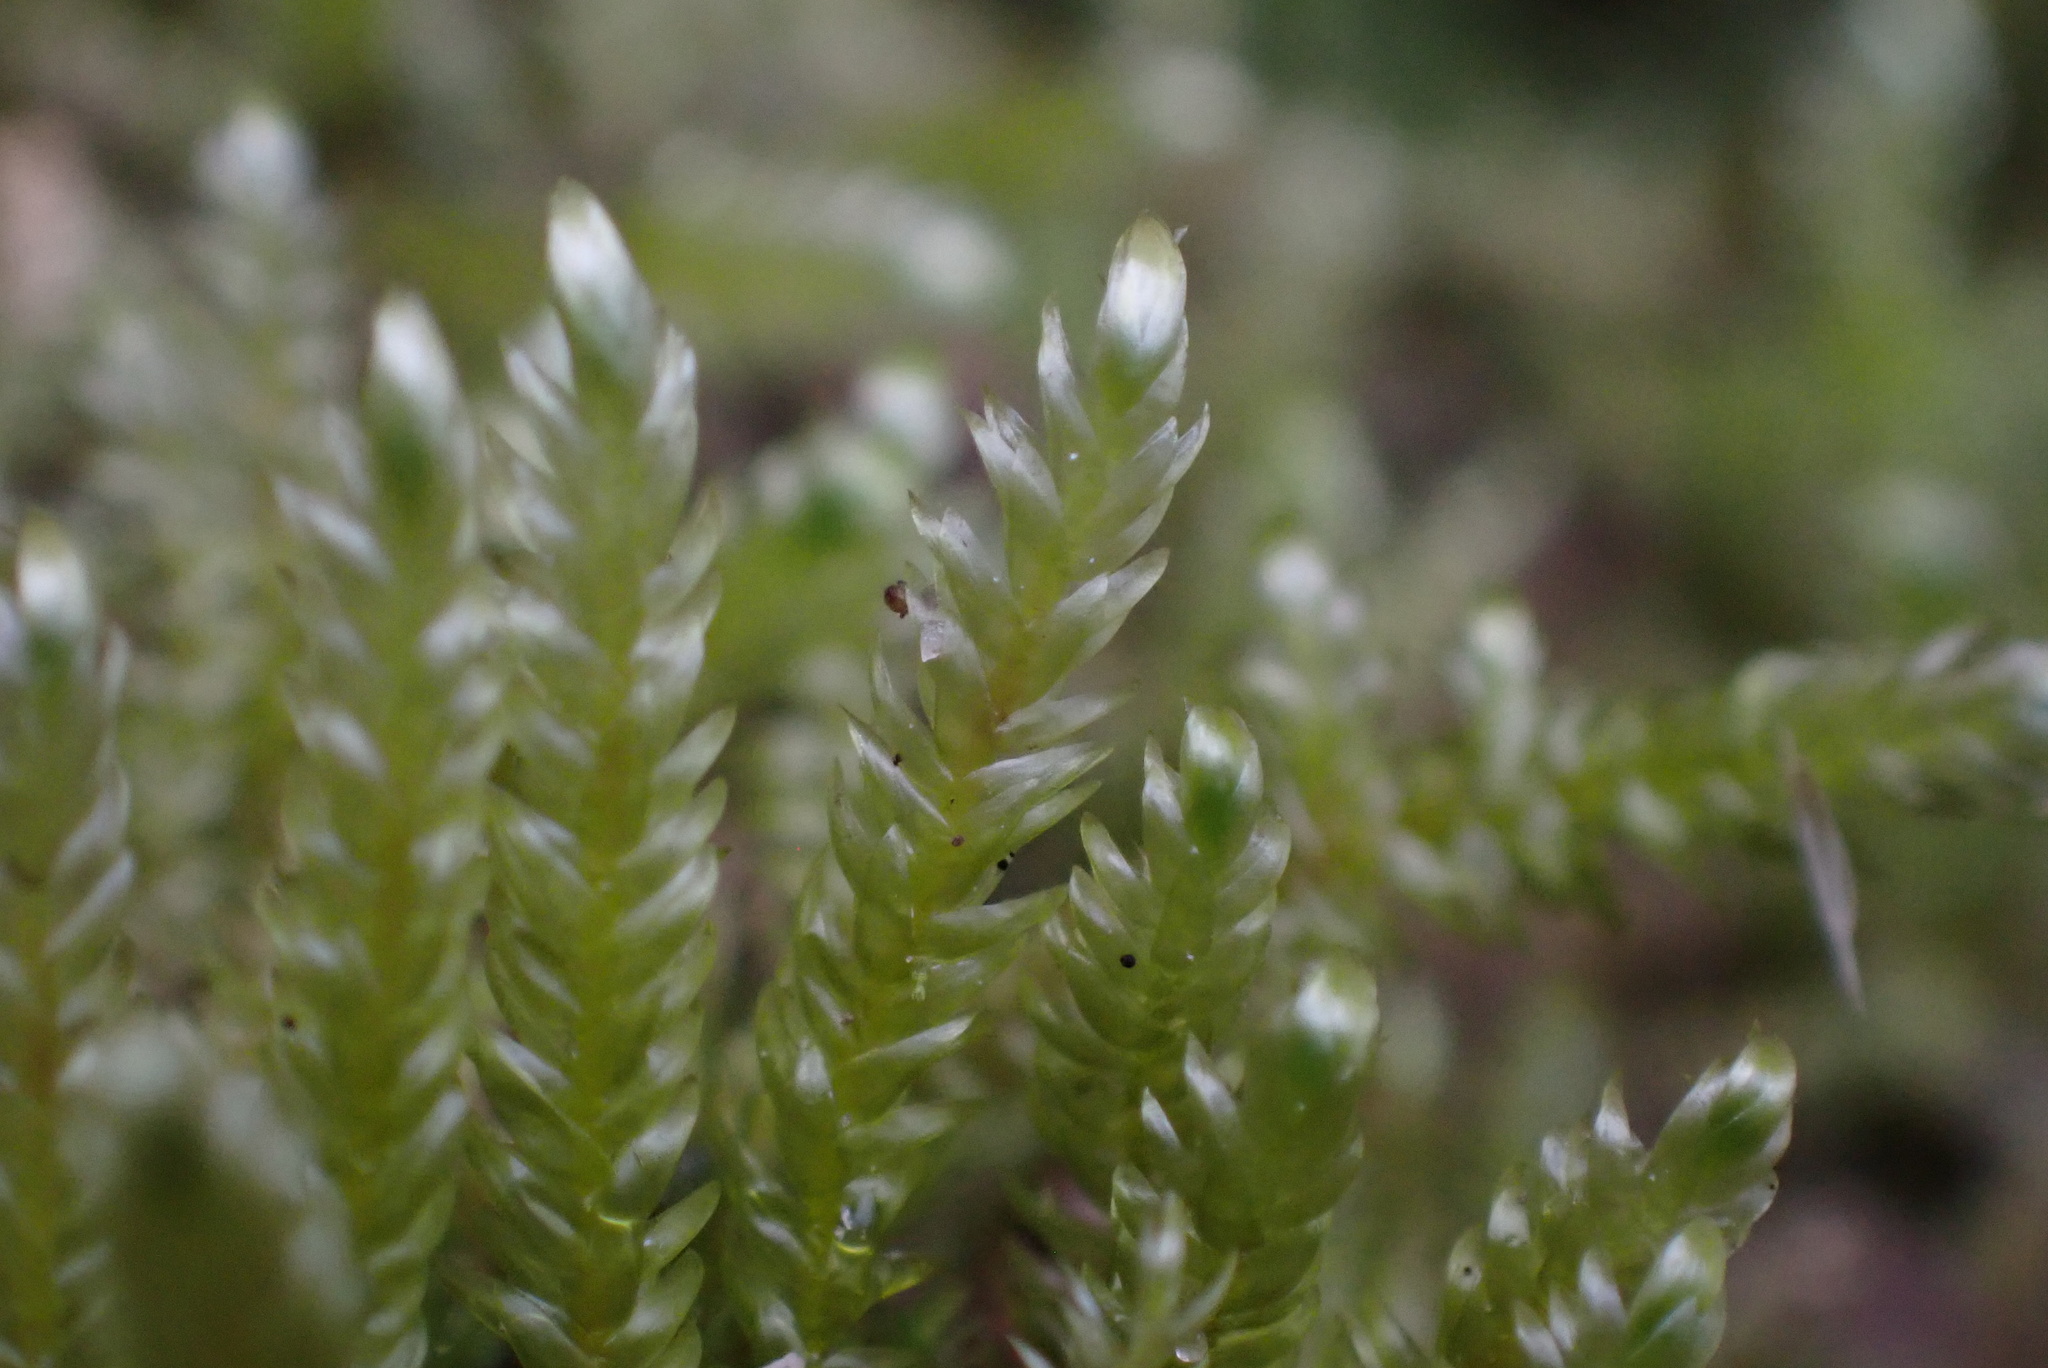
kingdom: Plantae
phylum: Bryophyta
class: Bryopsida
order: Hypnales
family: Pylaisiaceae
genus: Calliergonella
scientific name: Calliergonella lindbergii
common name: Lindberg's plait-moss
